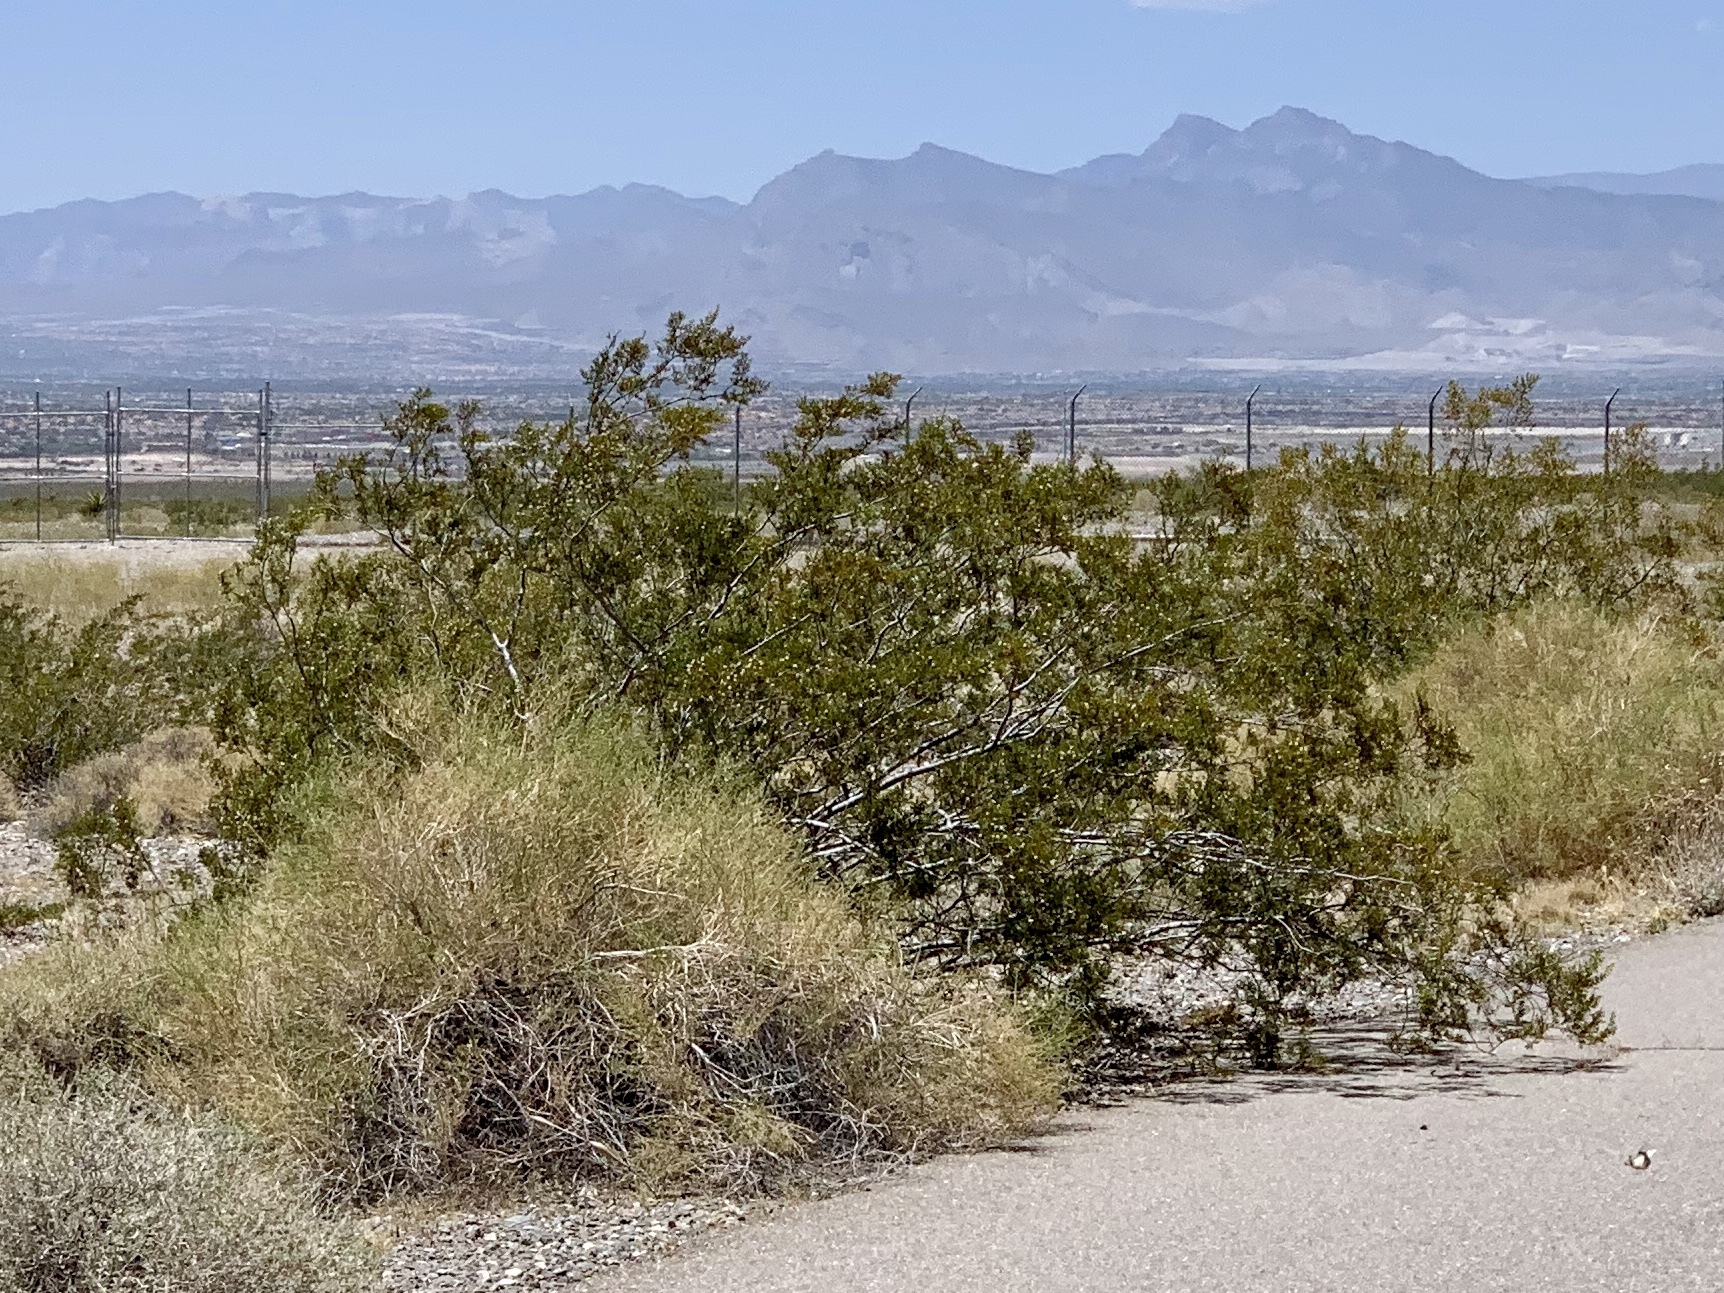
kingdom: Plantae
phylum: Tracheophyta
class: Magnoliopsida
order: Zygophyllales
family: Zygophyllaceae
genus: Larrea
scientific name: Larrea tridentata
